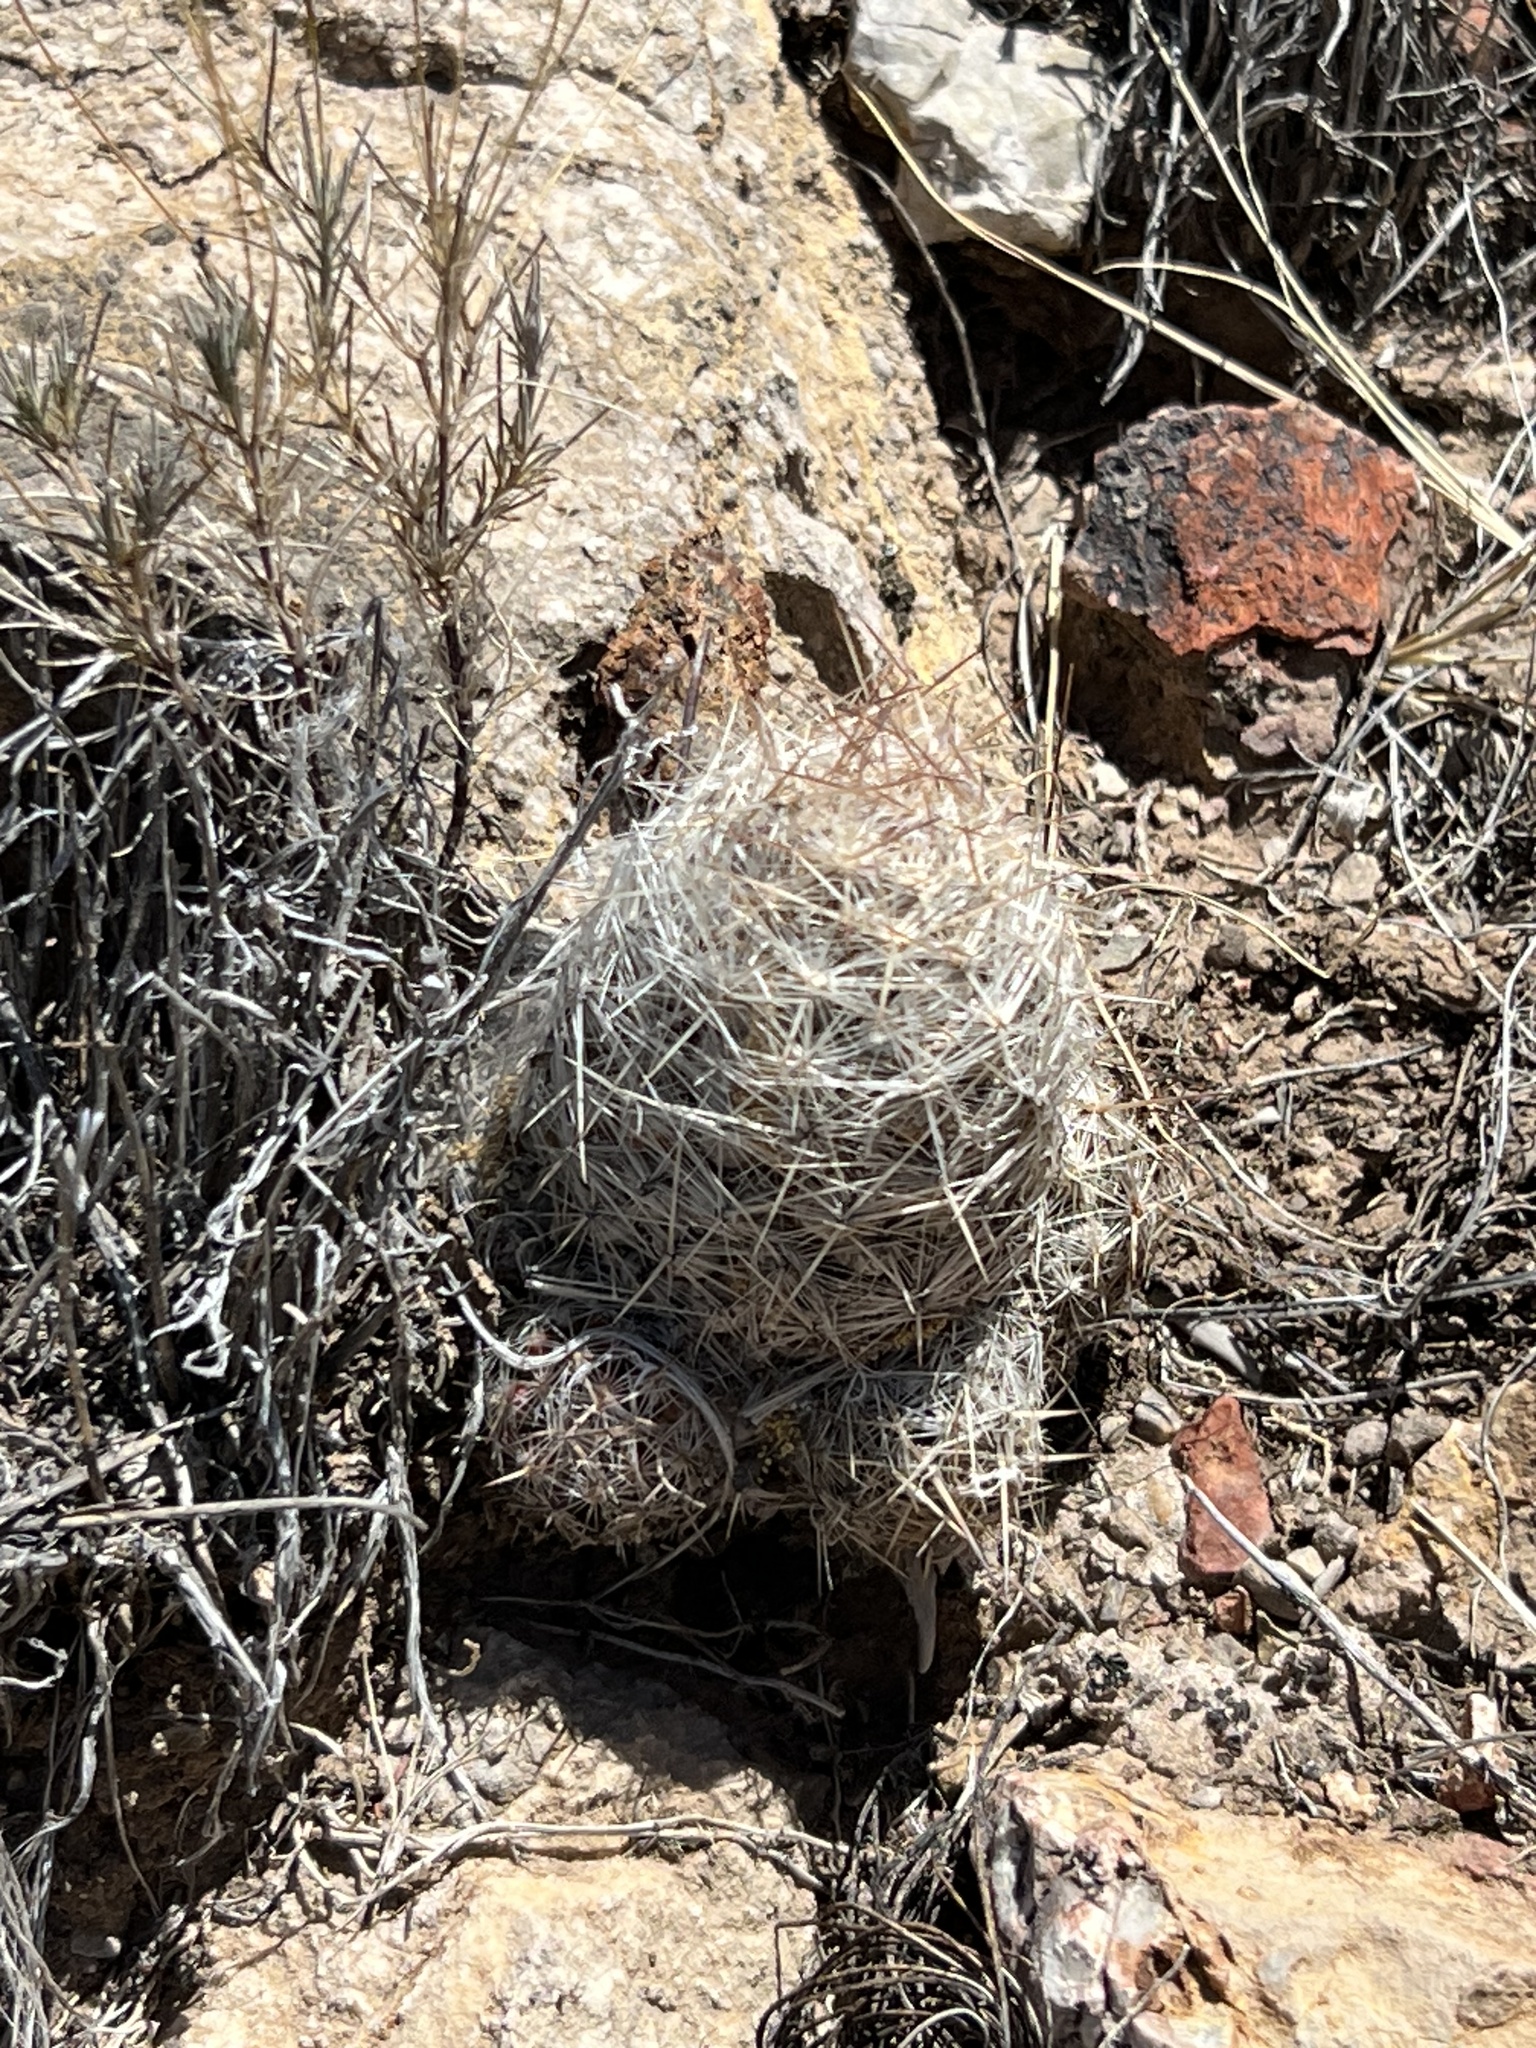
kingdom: Plantae
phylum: Tracheophyta
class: Magnoliopsida
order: Caryophyllales
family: Cactaceae
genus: Pelecyphora
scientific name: Pelecyphora tuberculosa
